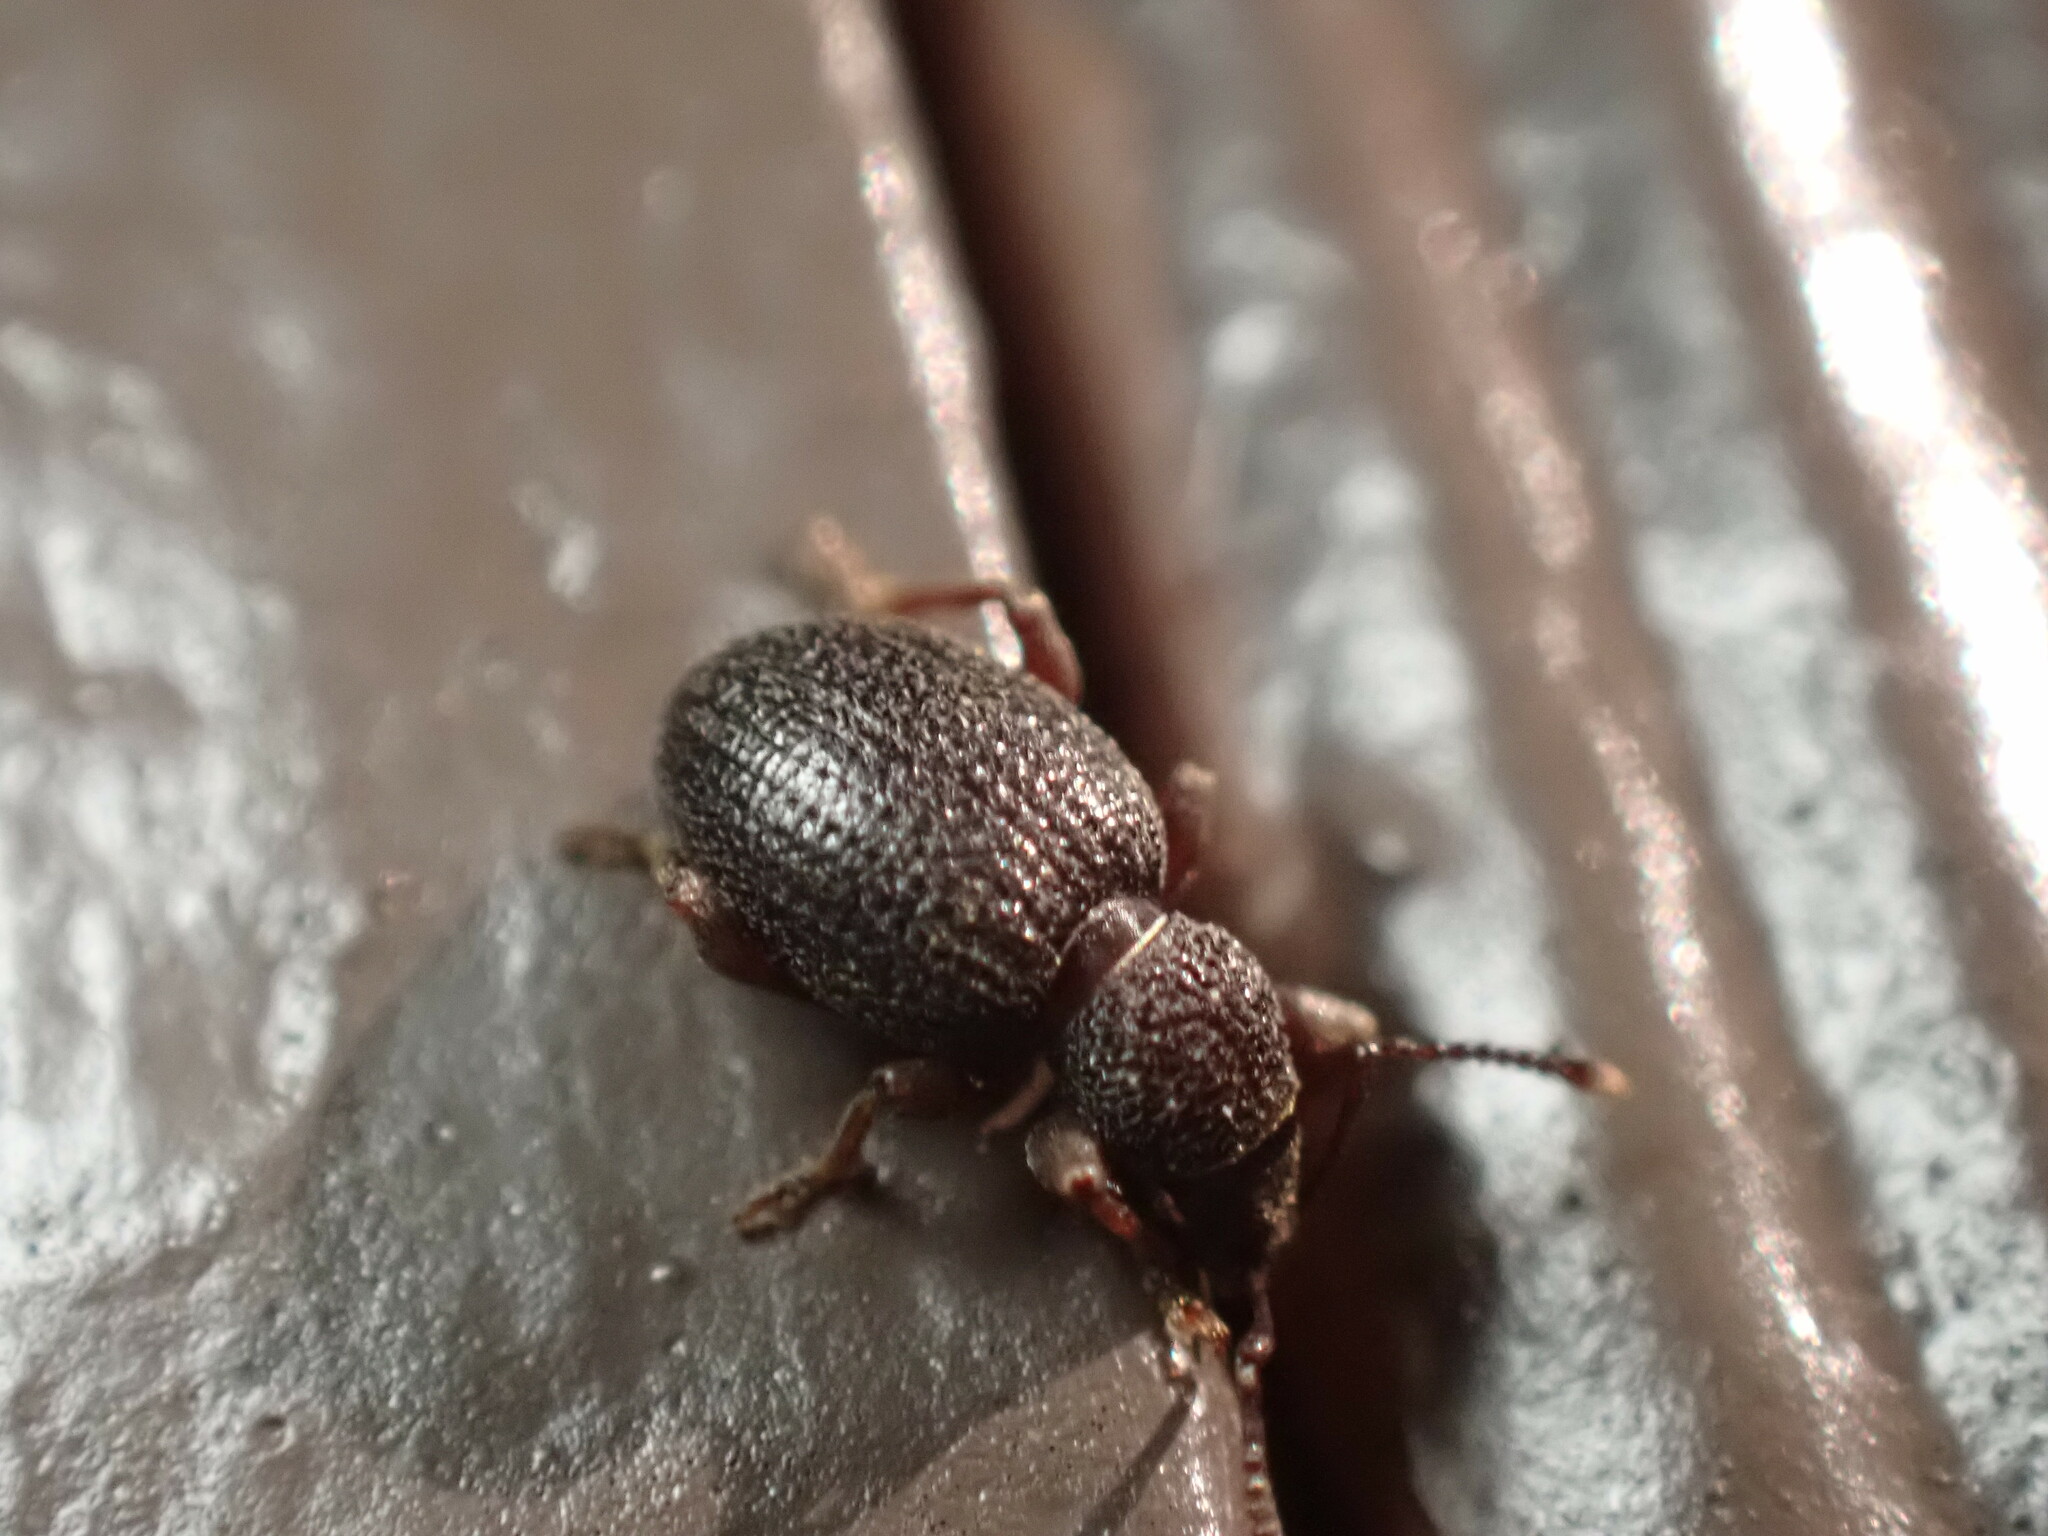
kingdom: Animalia
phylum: Arthropoda
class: Insecta
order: Coleoptera
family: Curculionidae
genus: Otiorhynchus
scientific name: Otiorhynchus ovatus
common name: Strawberry root weevil
